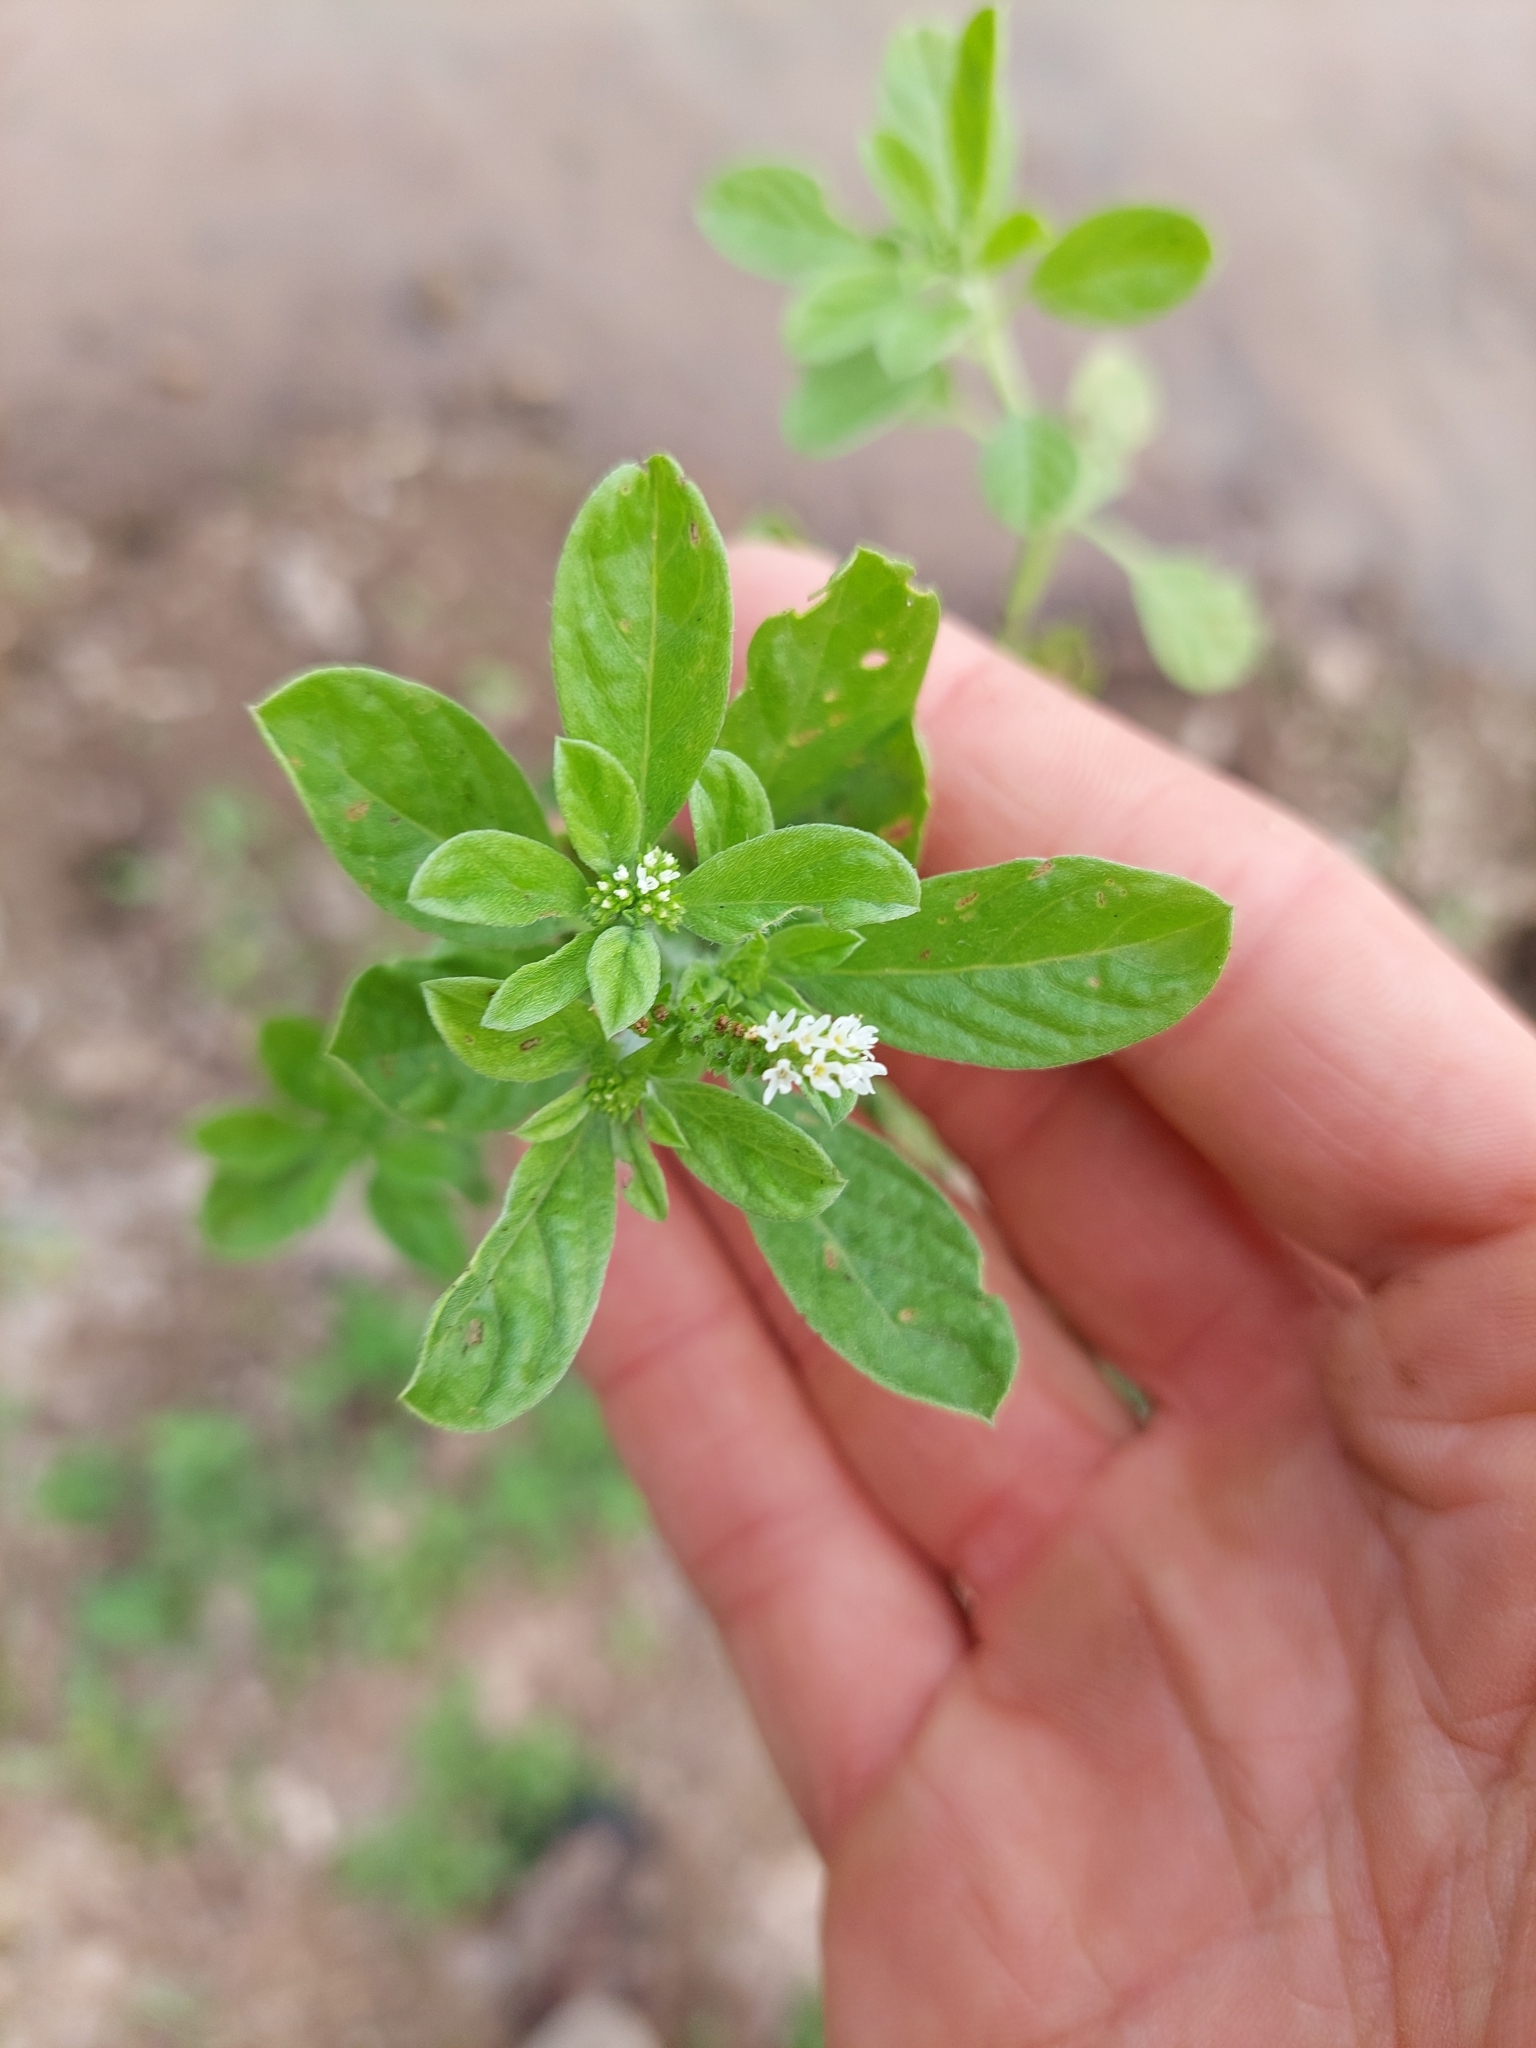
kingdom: Plantae
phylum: Tracheophyta
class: Magnoliopsida
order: Boraginales
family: Heliotropiaceae
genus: Euploca
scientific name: Euploca procumbens
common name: Fourspike heliotrope
